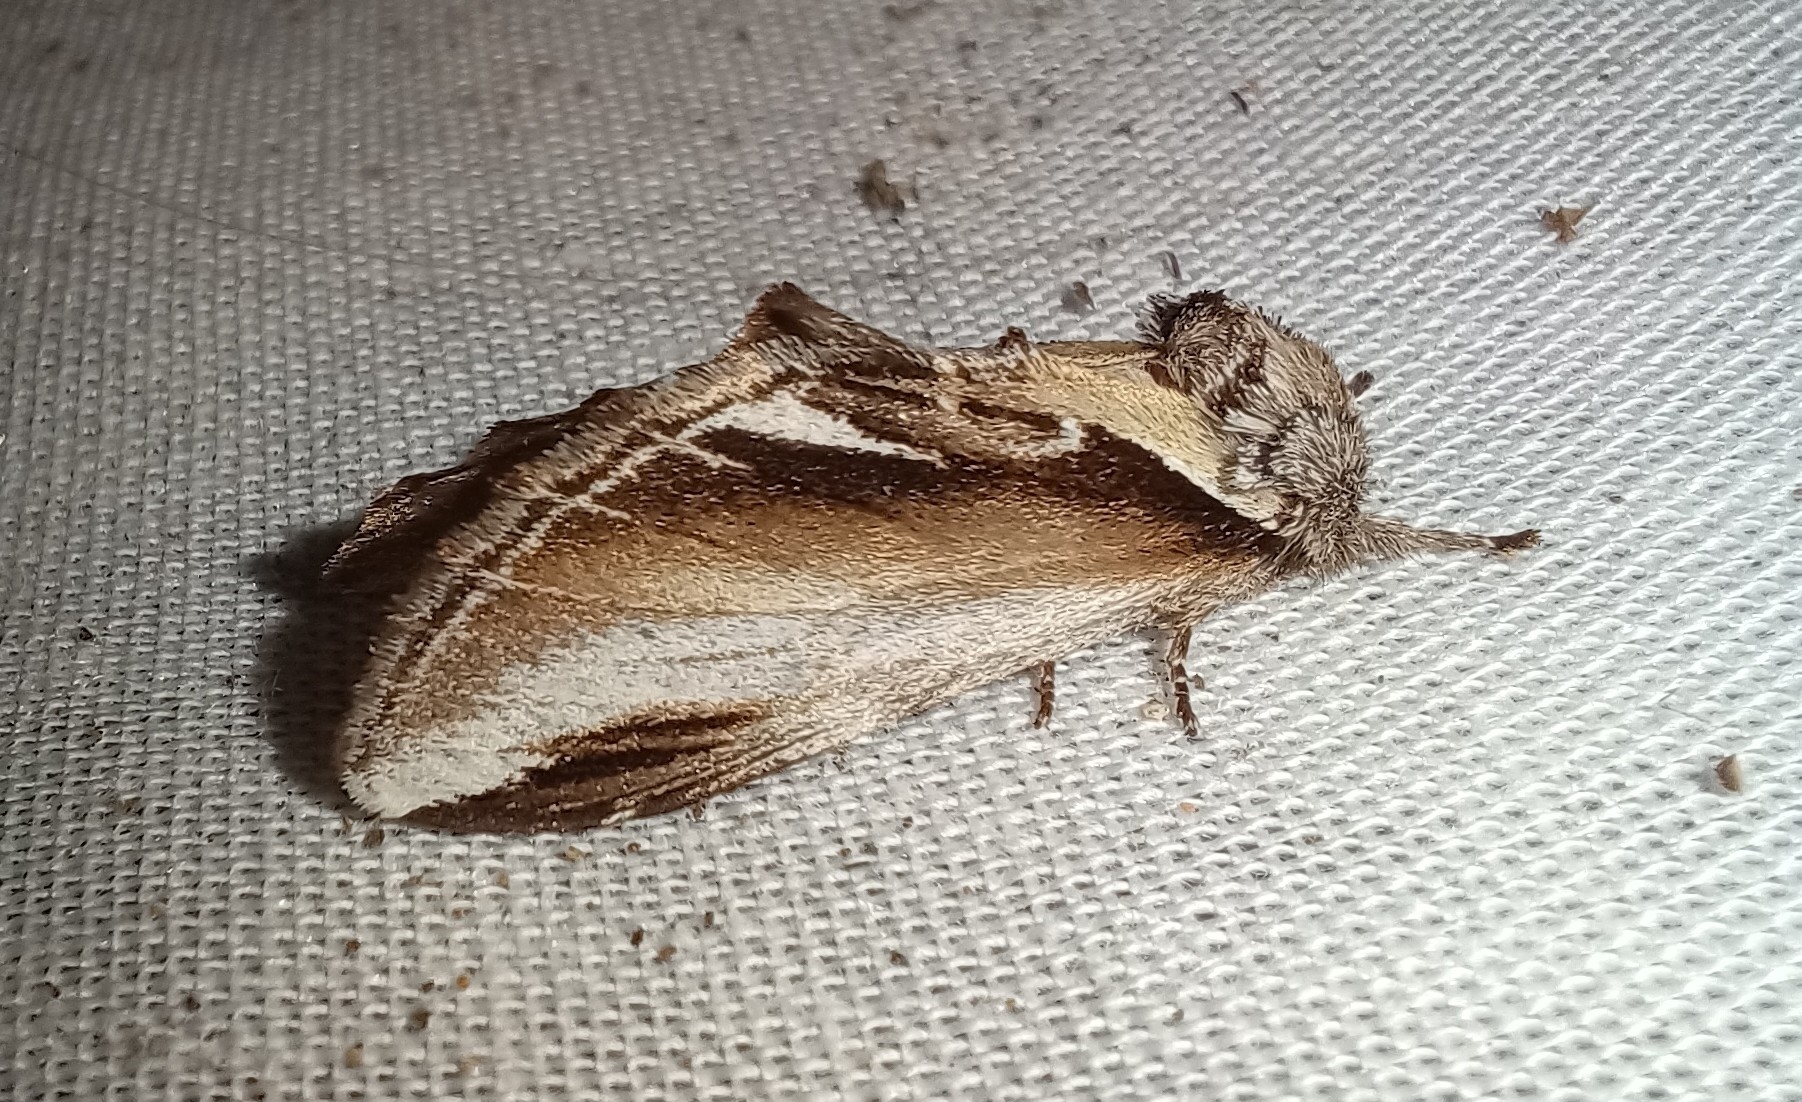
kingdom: Animalia
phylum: Arthropoda
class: Insecta
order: Lepidoptera
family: Notodontidae
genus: Pheosia
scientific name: Pheosia gnoma
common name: Lesser swallow prominent
